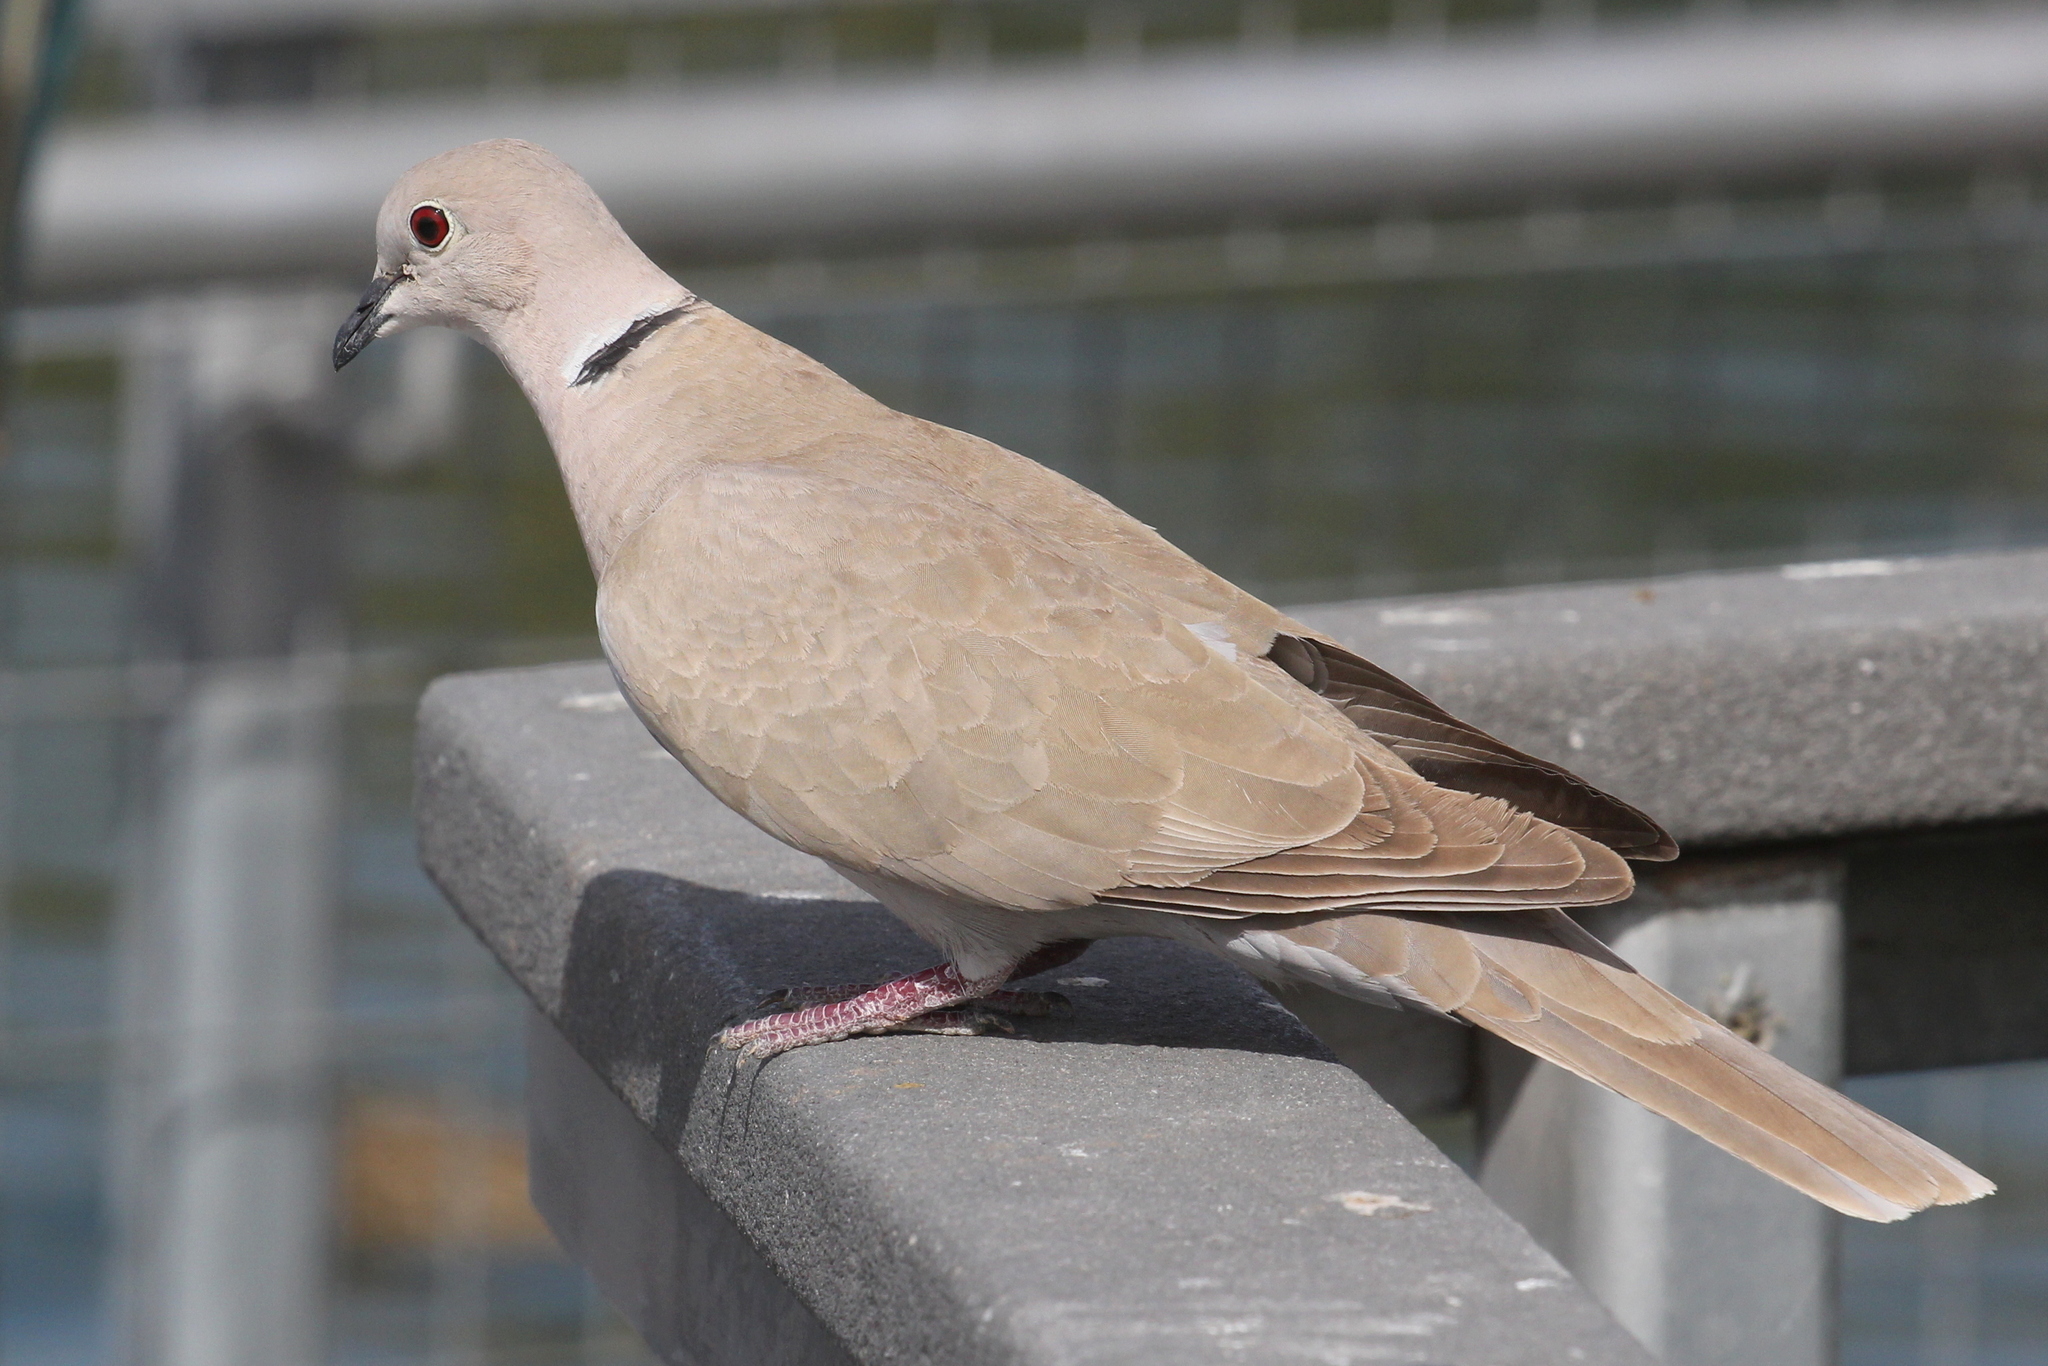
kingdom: Animalia
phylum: Chordata
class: Aves
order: Columbiformes
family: Columbidae
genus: Streptopelia
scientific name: Streptopelia
